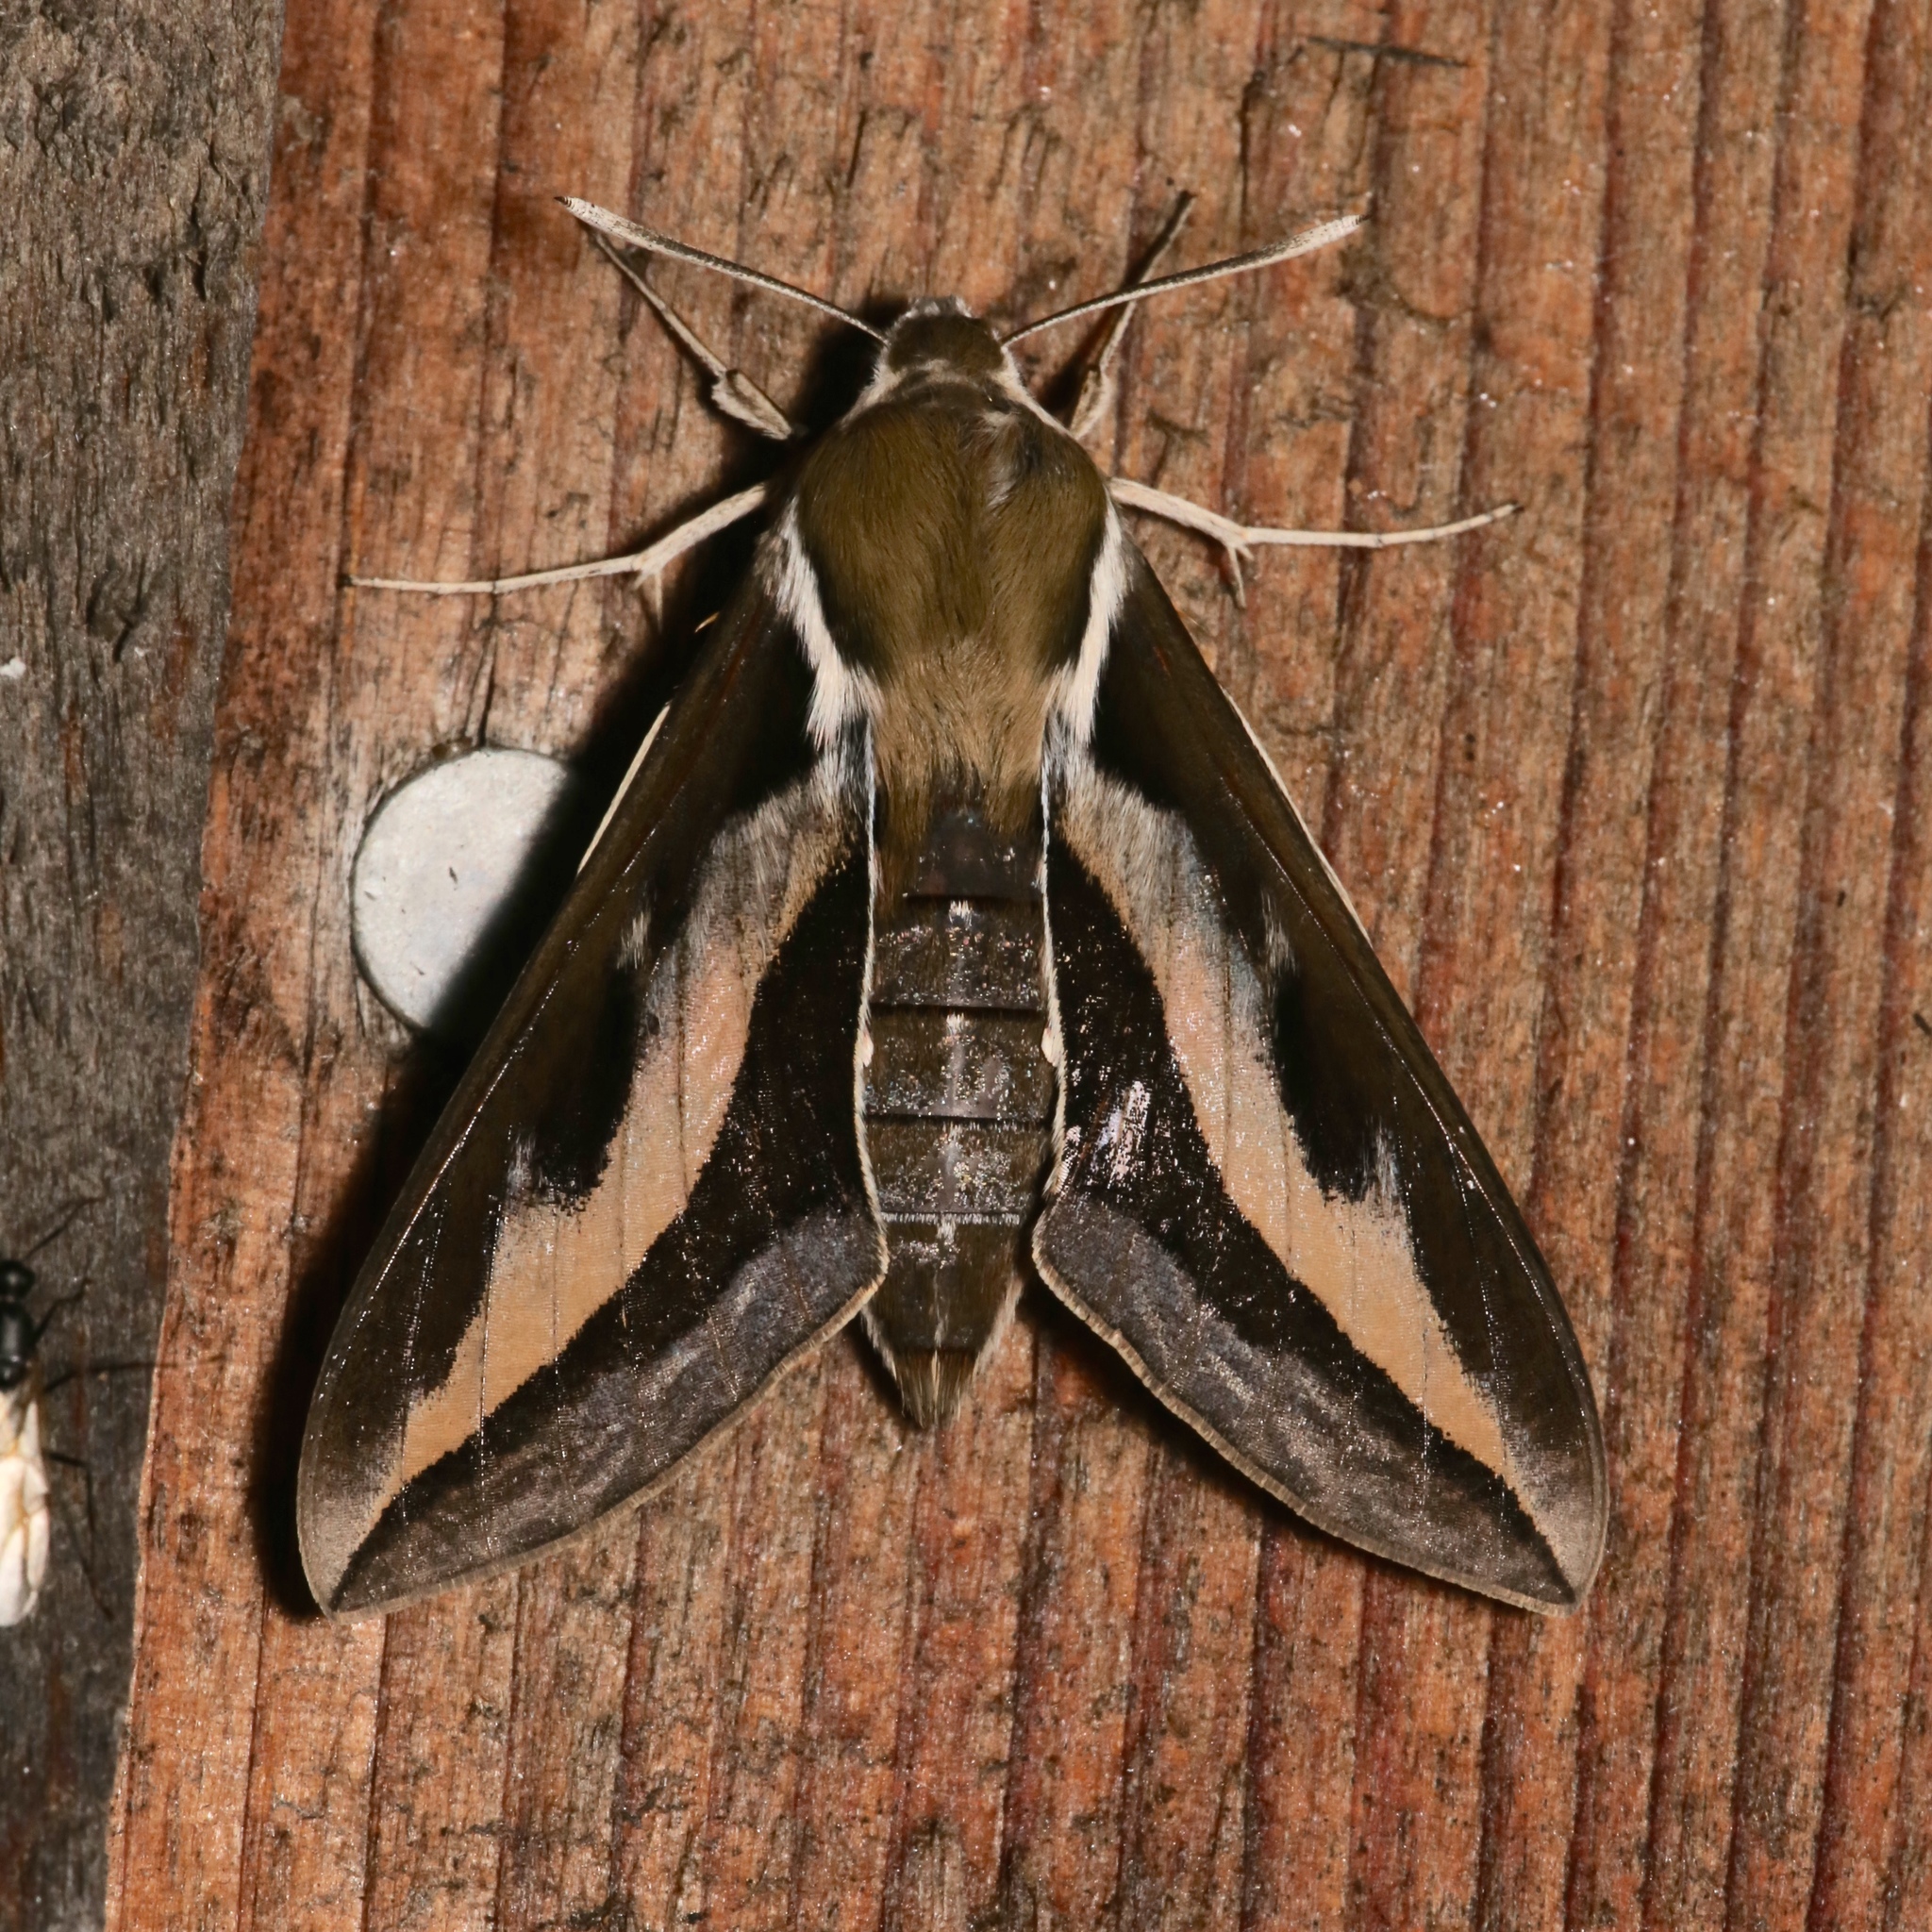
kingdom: Animalia
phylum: Arthropoda
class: Insecta
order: Lepidoptera
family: Sphingidae
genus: Hyles
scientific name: Hyles gallii
